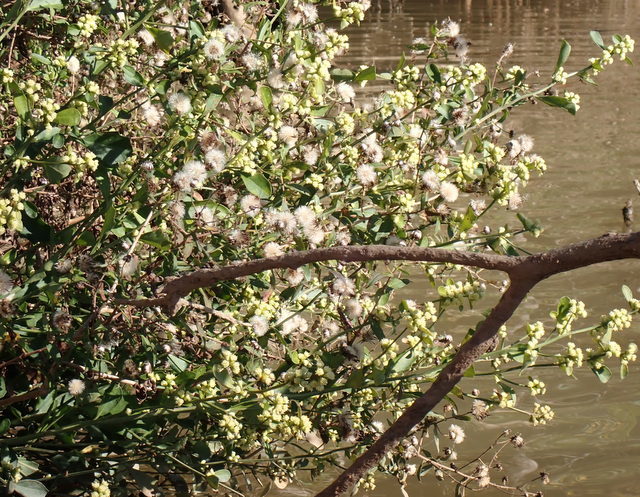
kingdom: Plantae
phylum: Tracheophyta
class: Magnoliopsida
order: Asterales
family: Asteraceae
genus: Baccharis
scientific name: Baccharis glomeruliflora
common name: Silverling groundsel bush
